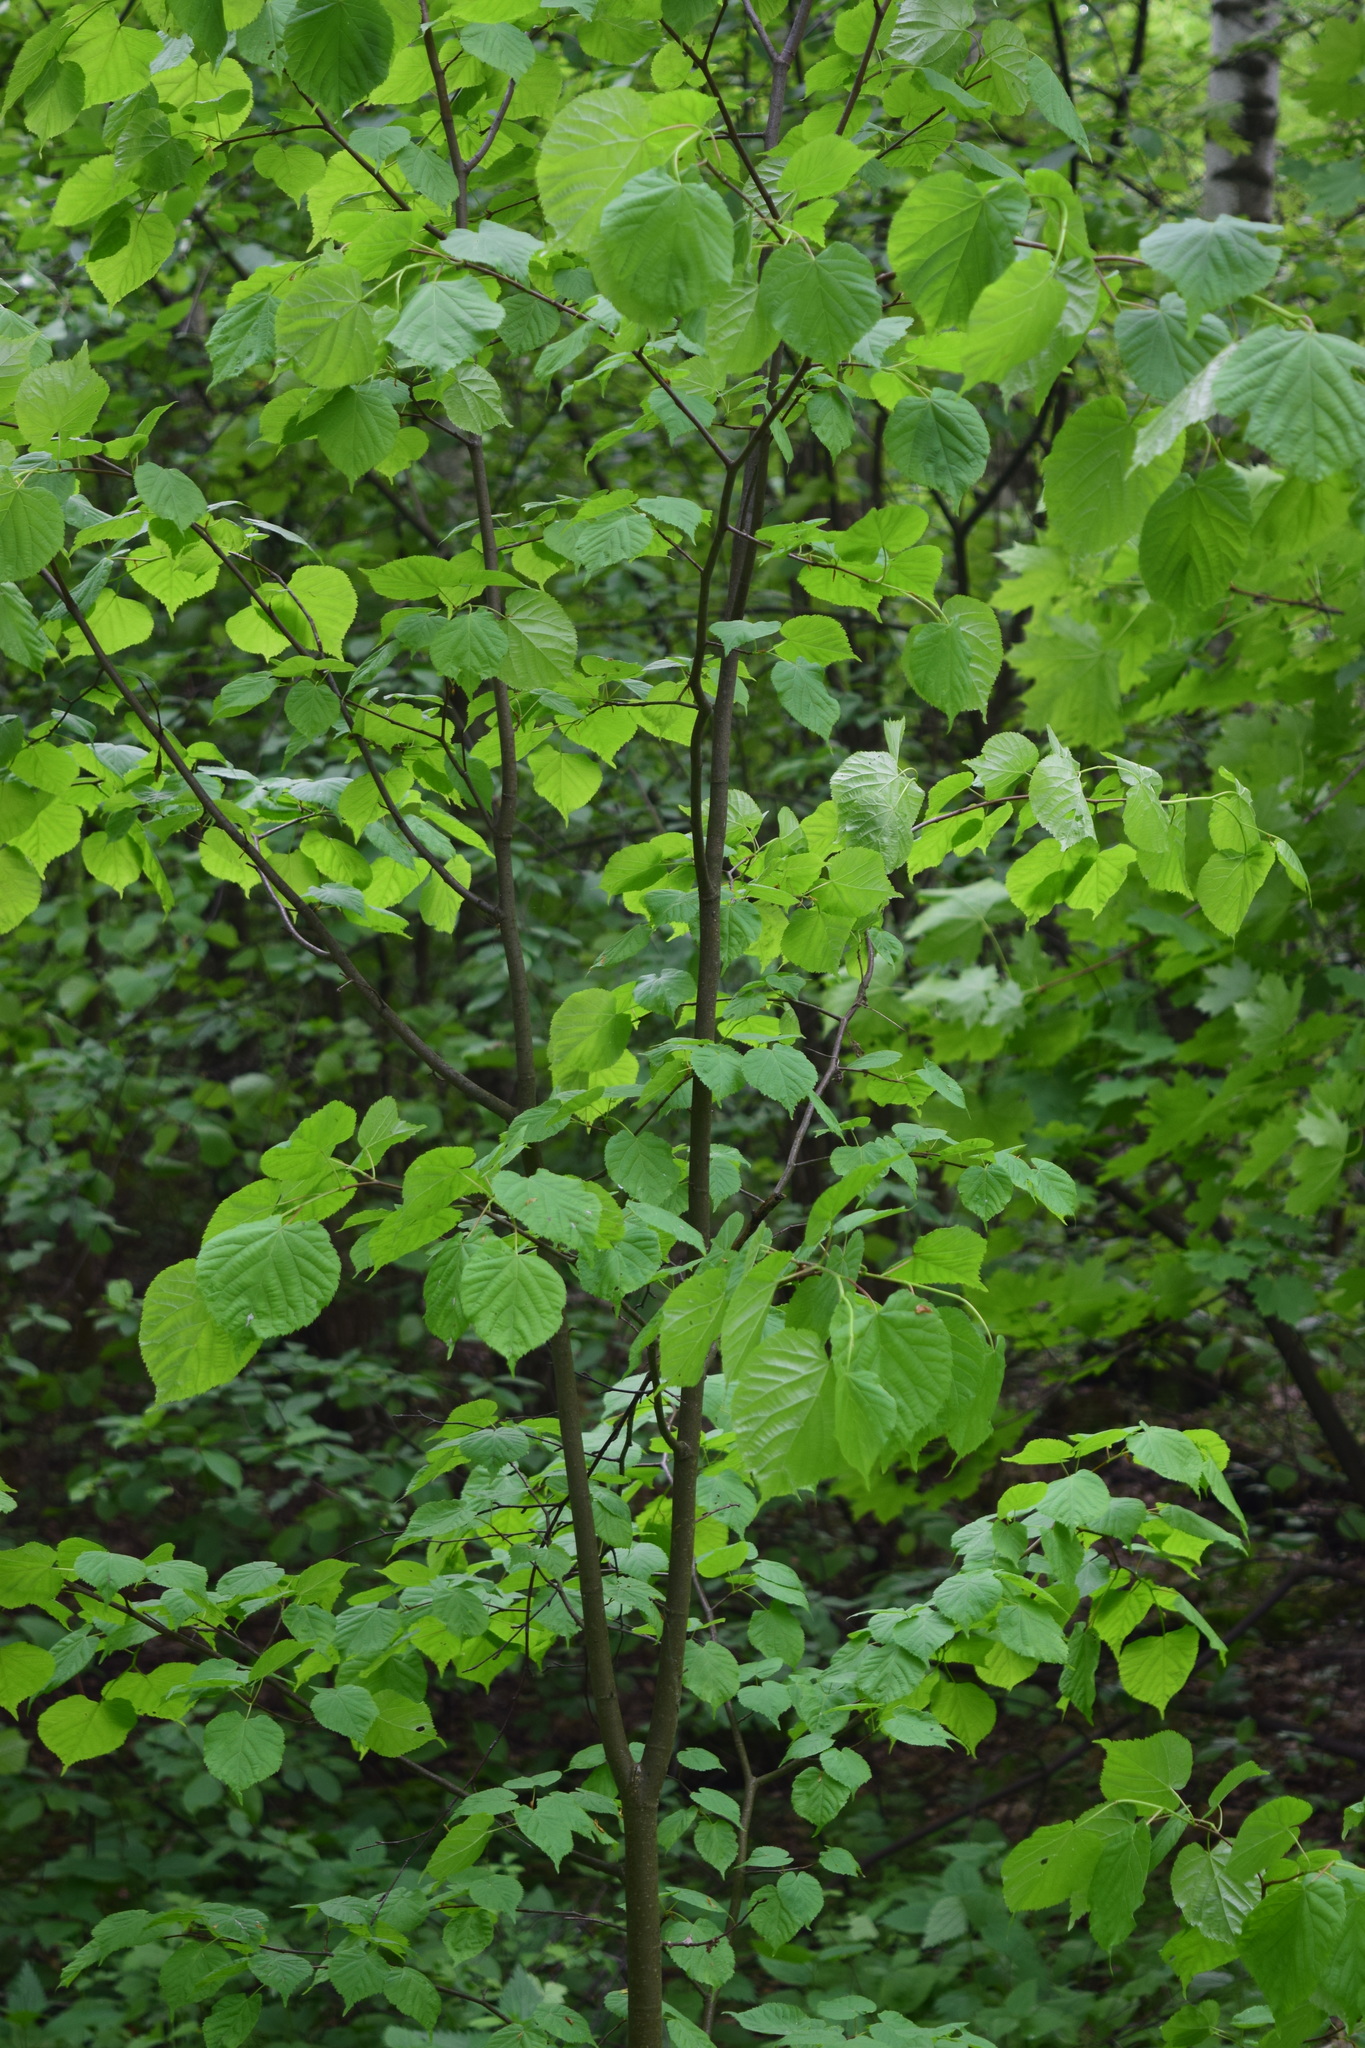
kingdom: Plantae
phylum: Tracheophyta
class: Magnoliopsida
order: Malvales
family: Malvaceae
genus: Tilia
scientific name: Tilia cordata
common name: Small-leaved lime
